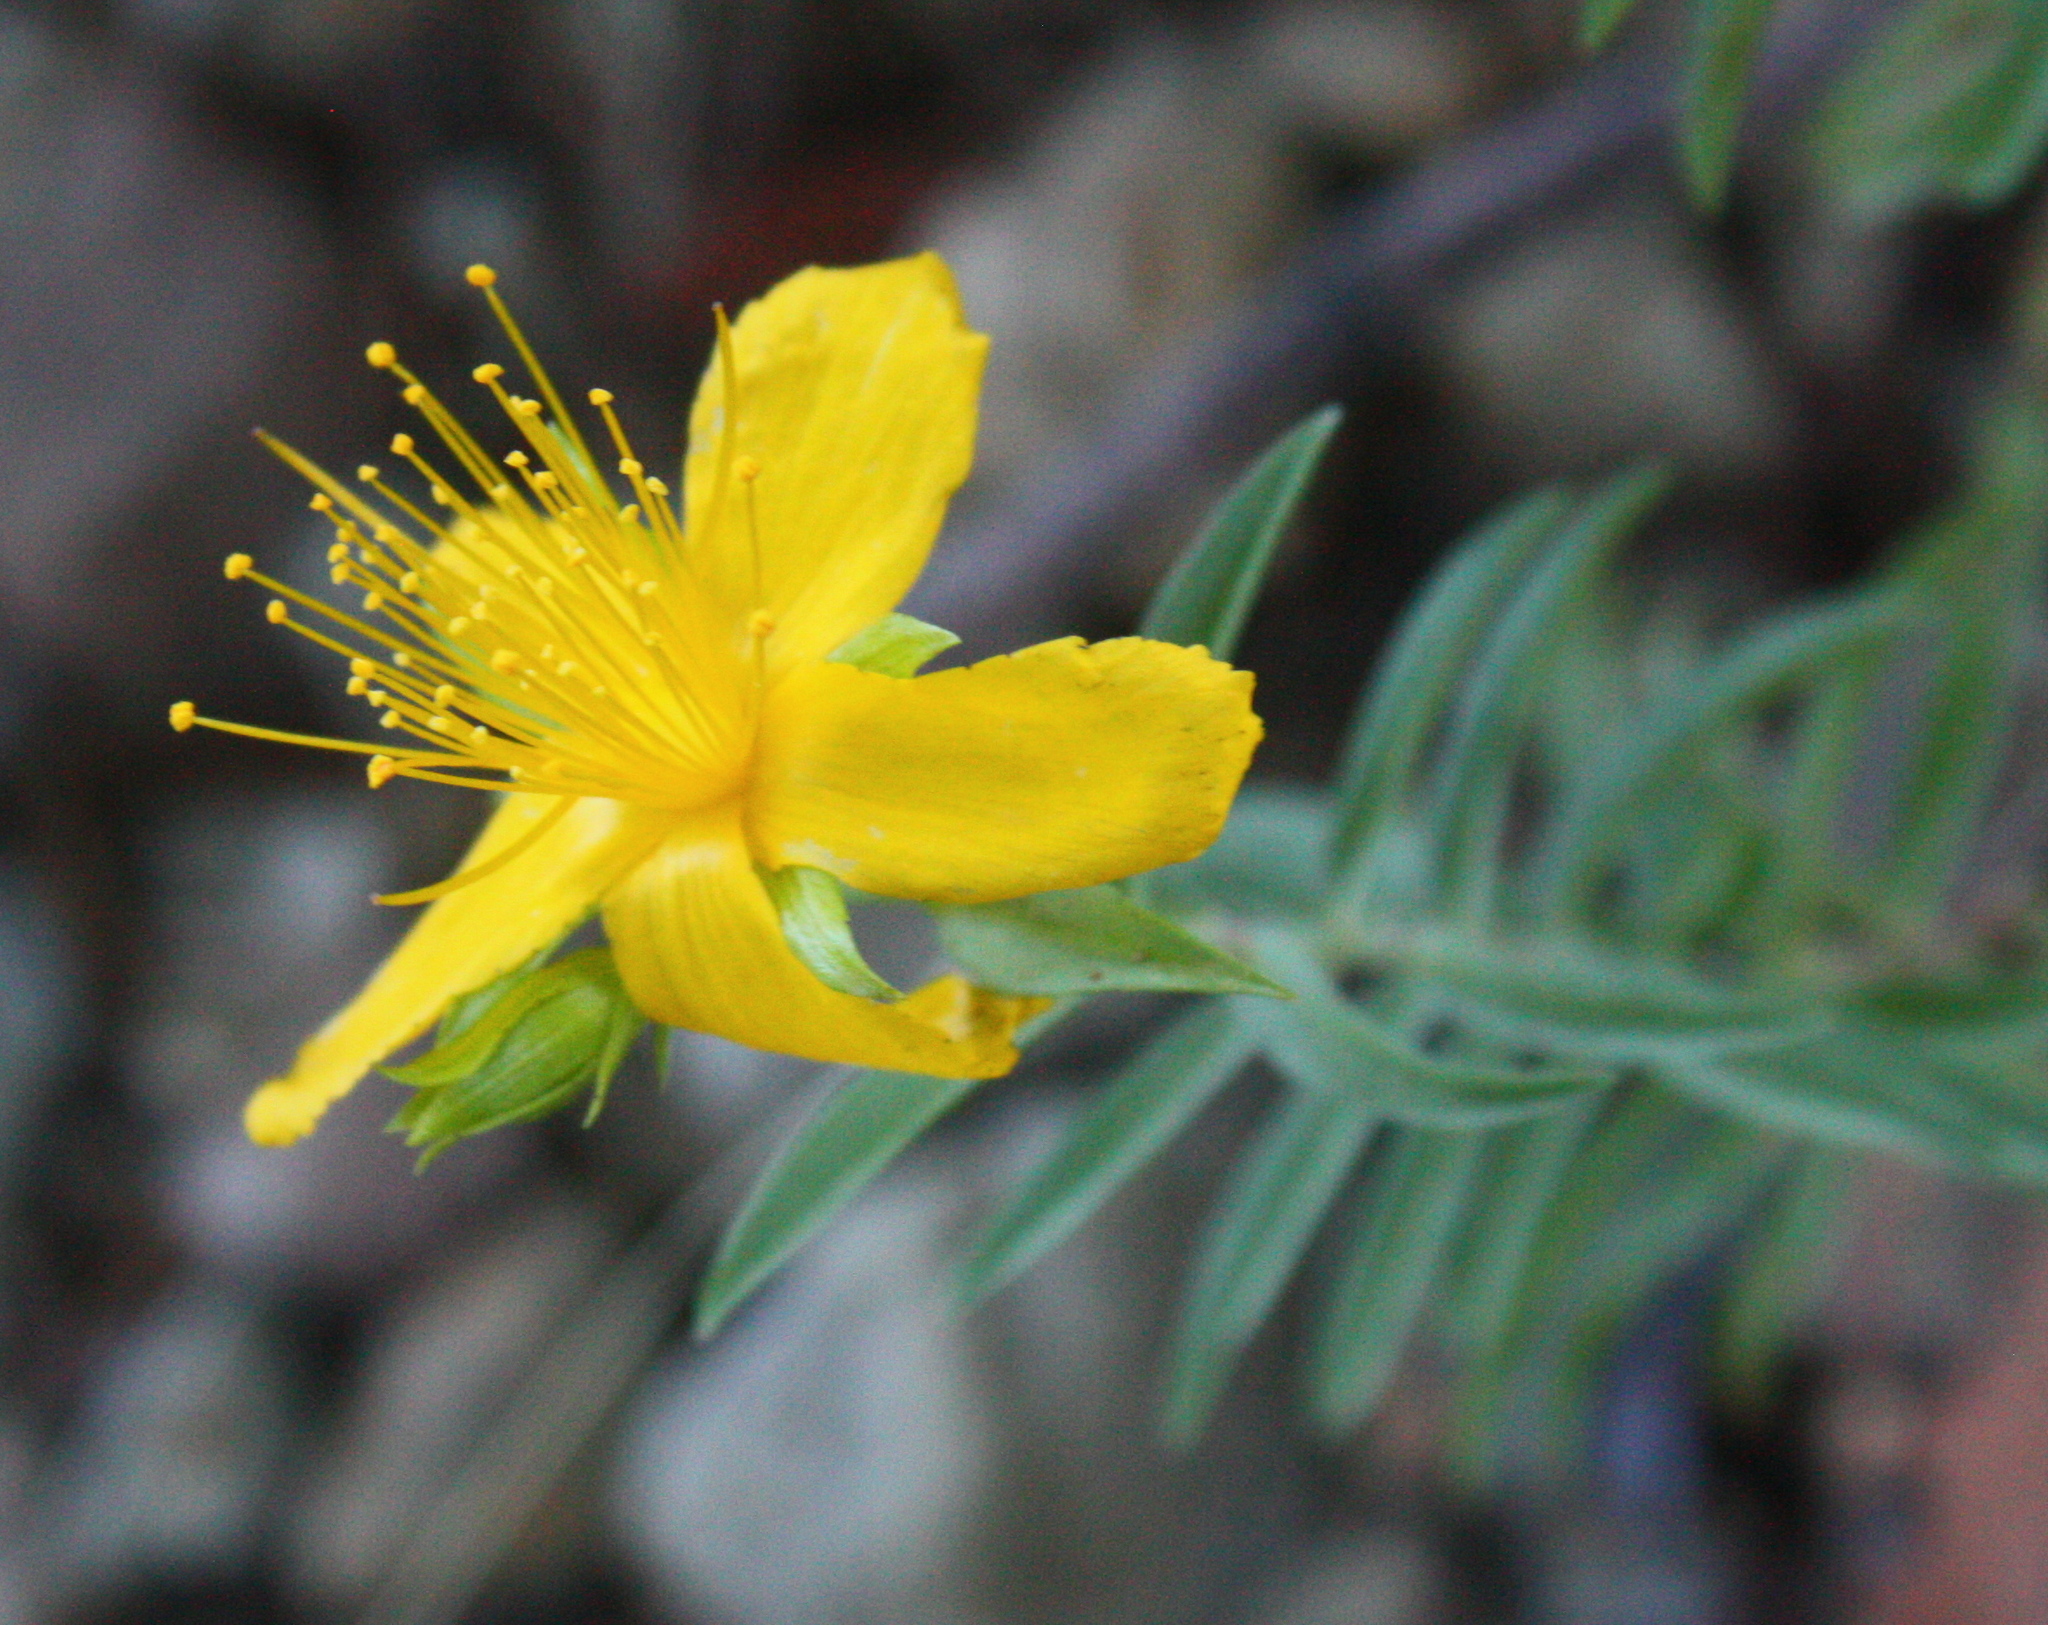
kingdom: Plantae
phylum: Tracheophyta
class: Magnoliopsida
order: Malpighiales
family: Hypericaceae
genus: Hypericum
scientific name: Hypericum concinnum
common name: Gold-wire
